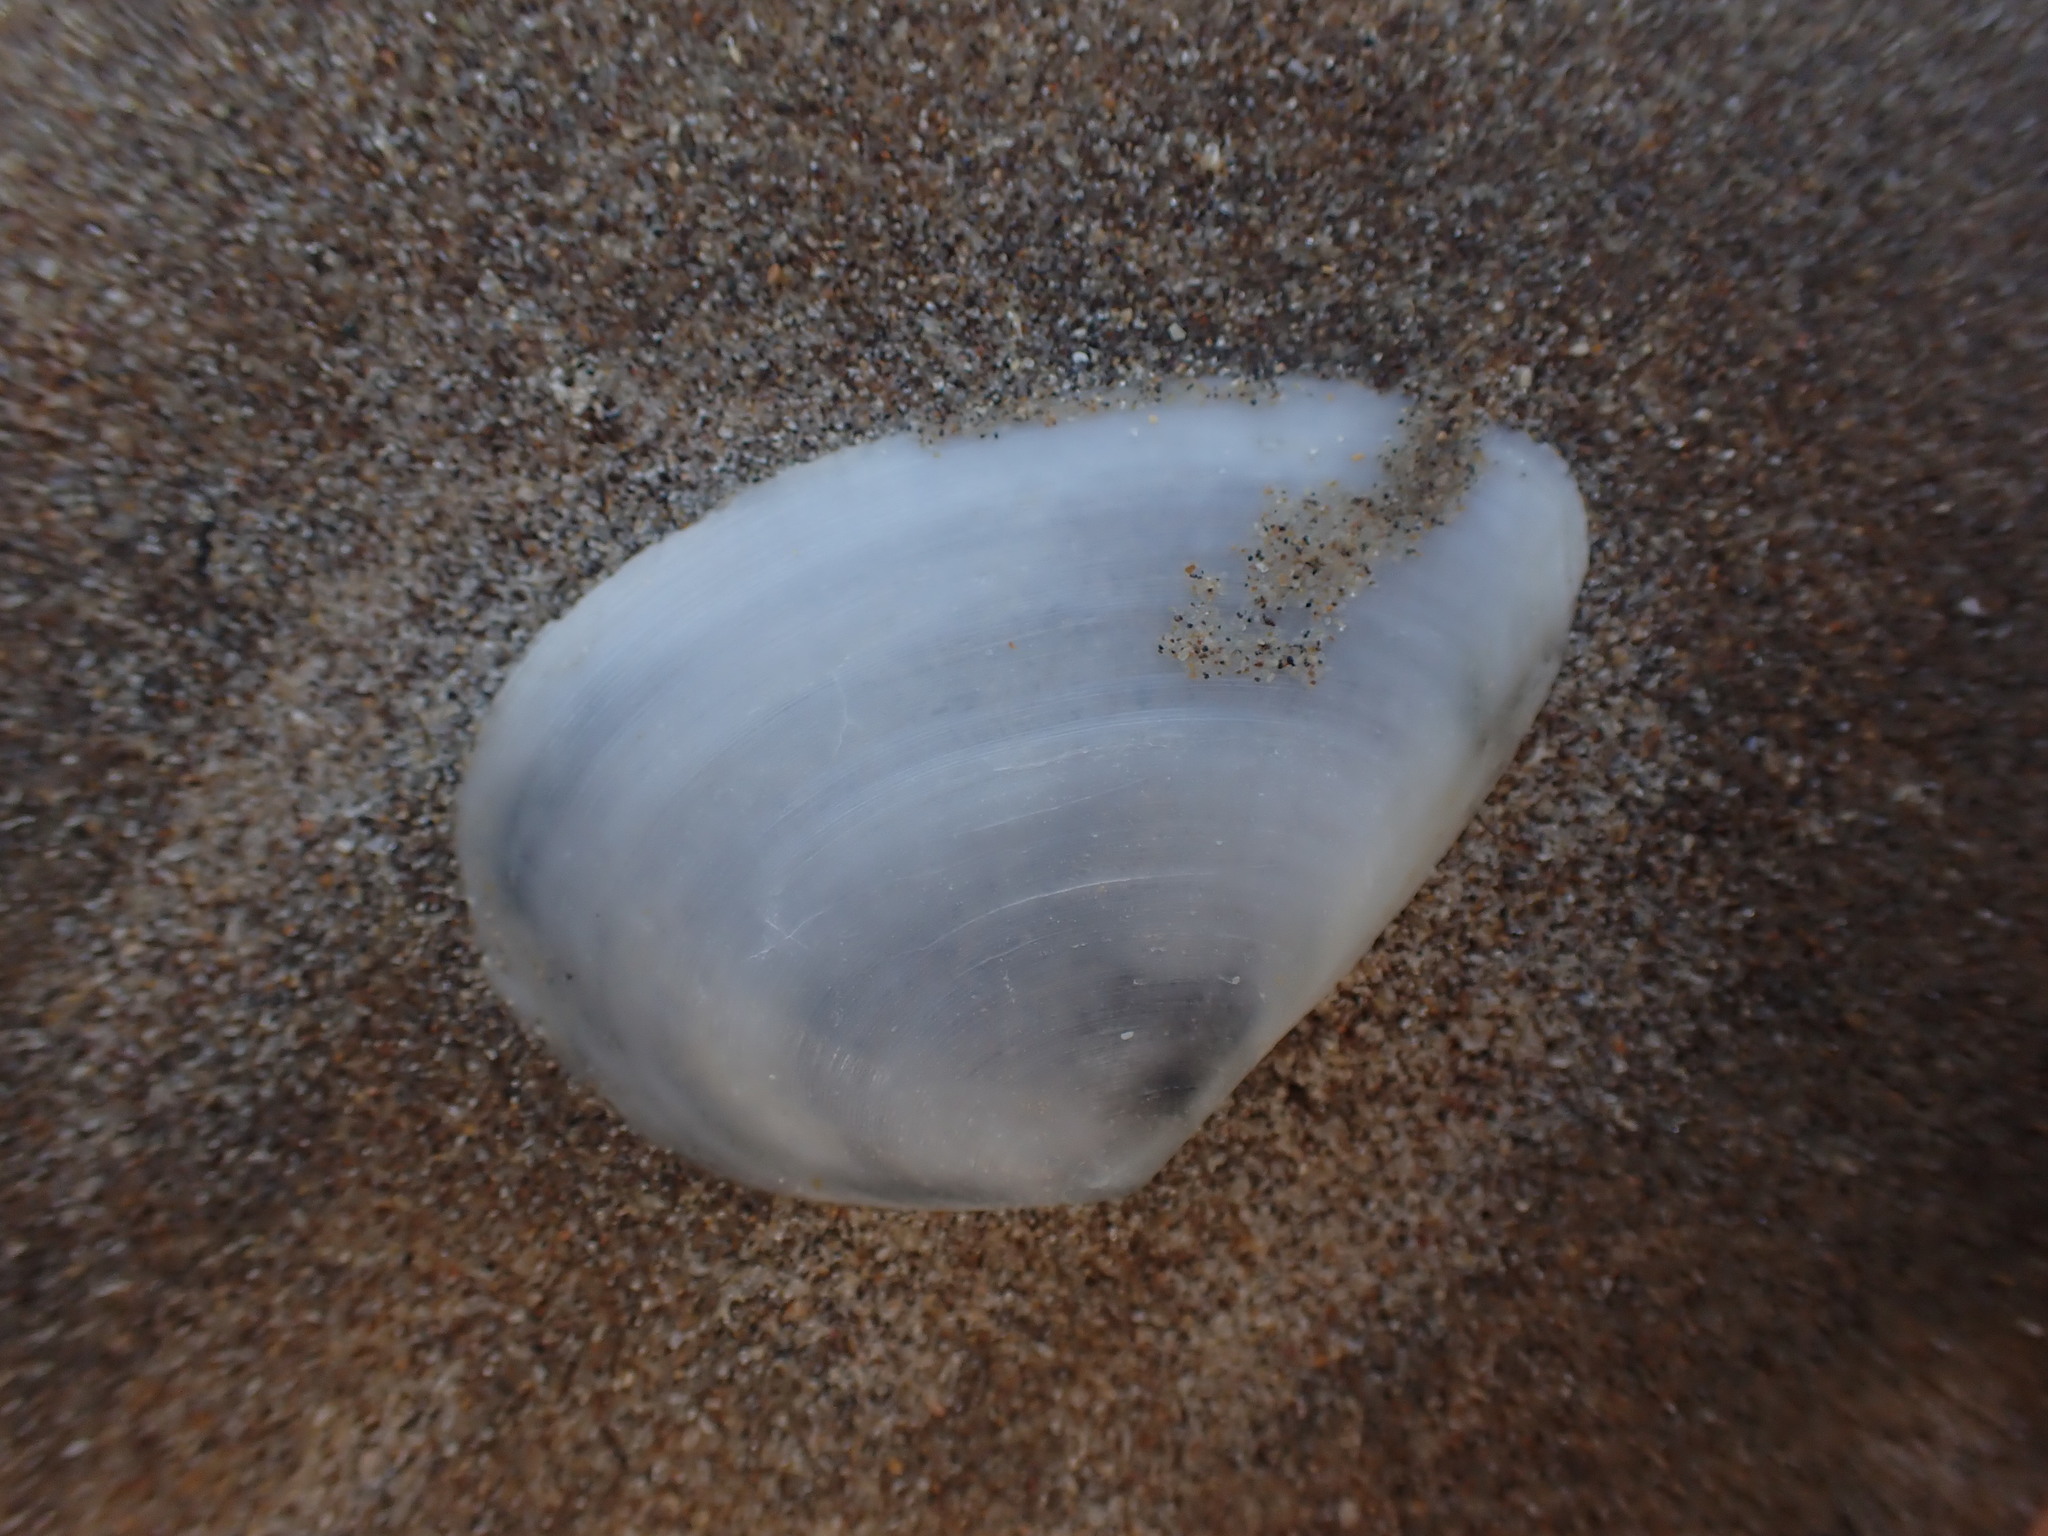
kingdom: Animalia
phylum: Mollusca
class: Bivalvia
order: Cardiida
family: Tellinidae
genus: Bartschicoma
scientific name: Bartschicoma gaimardi
